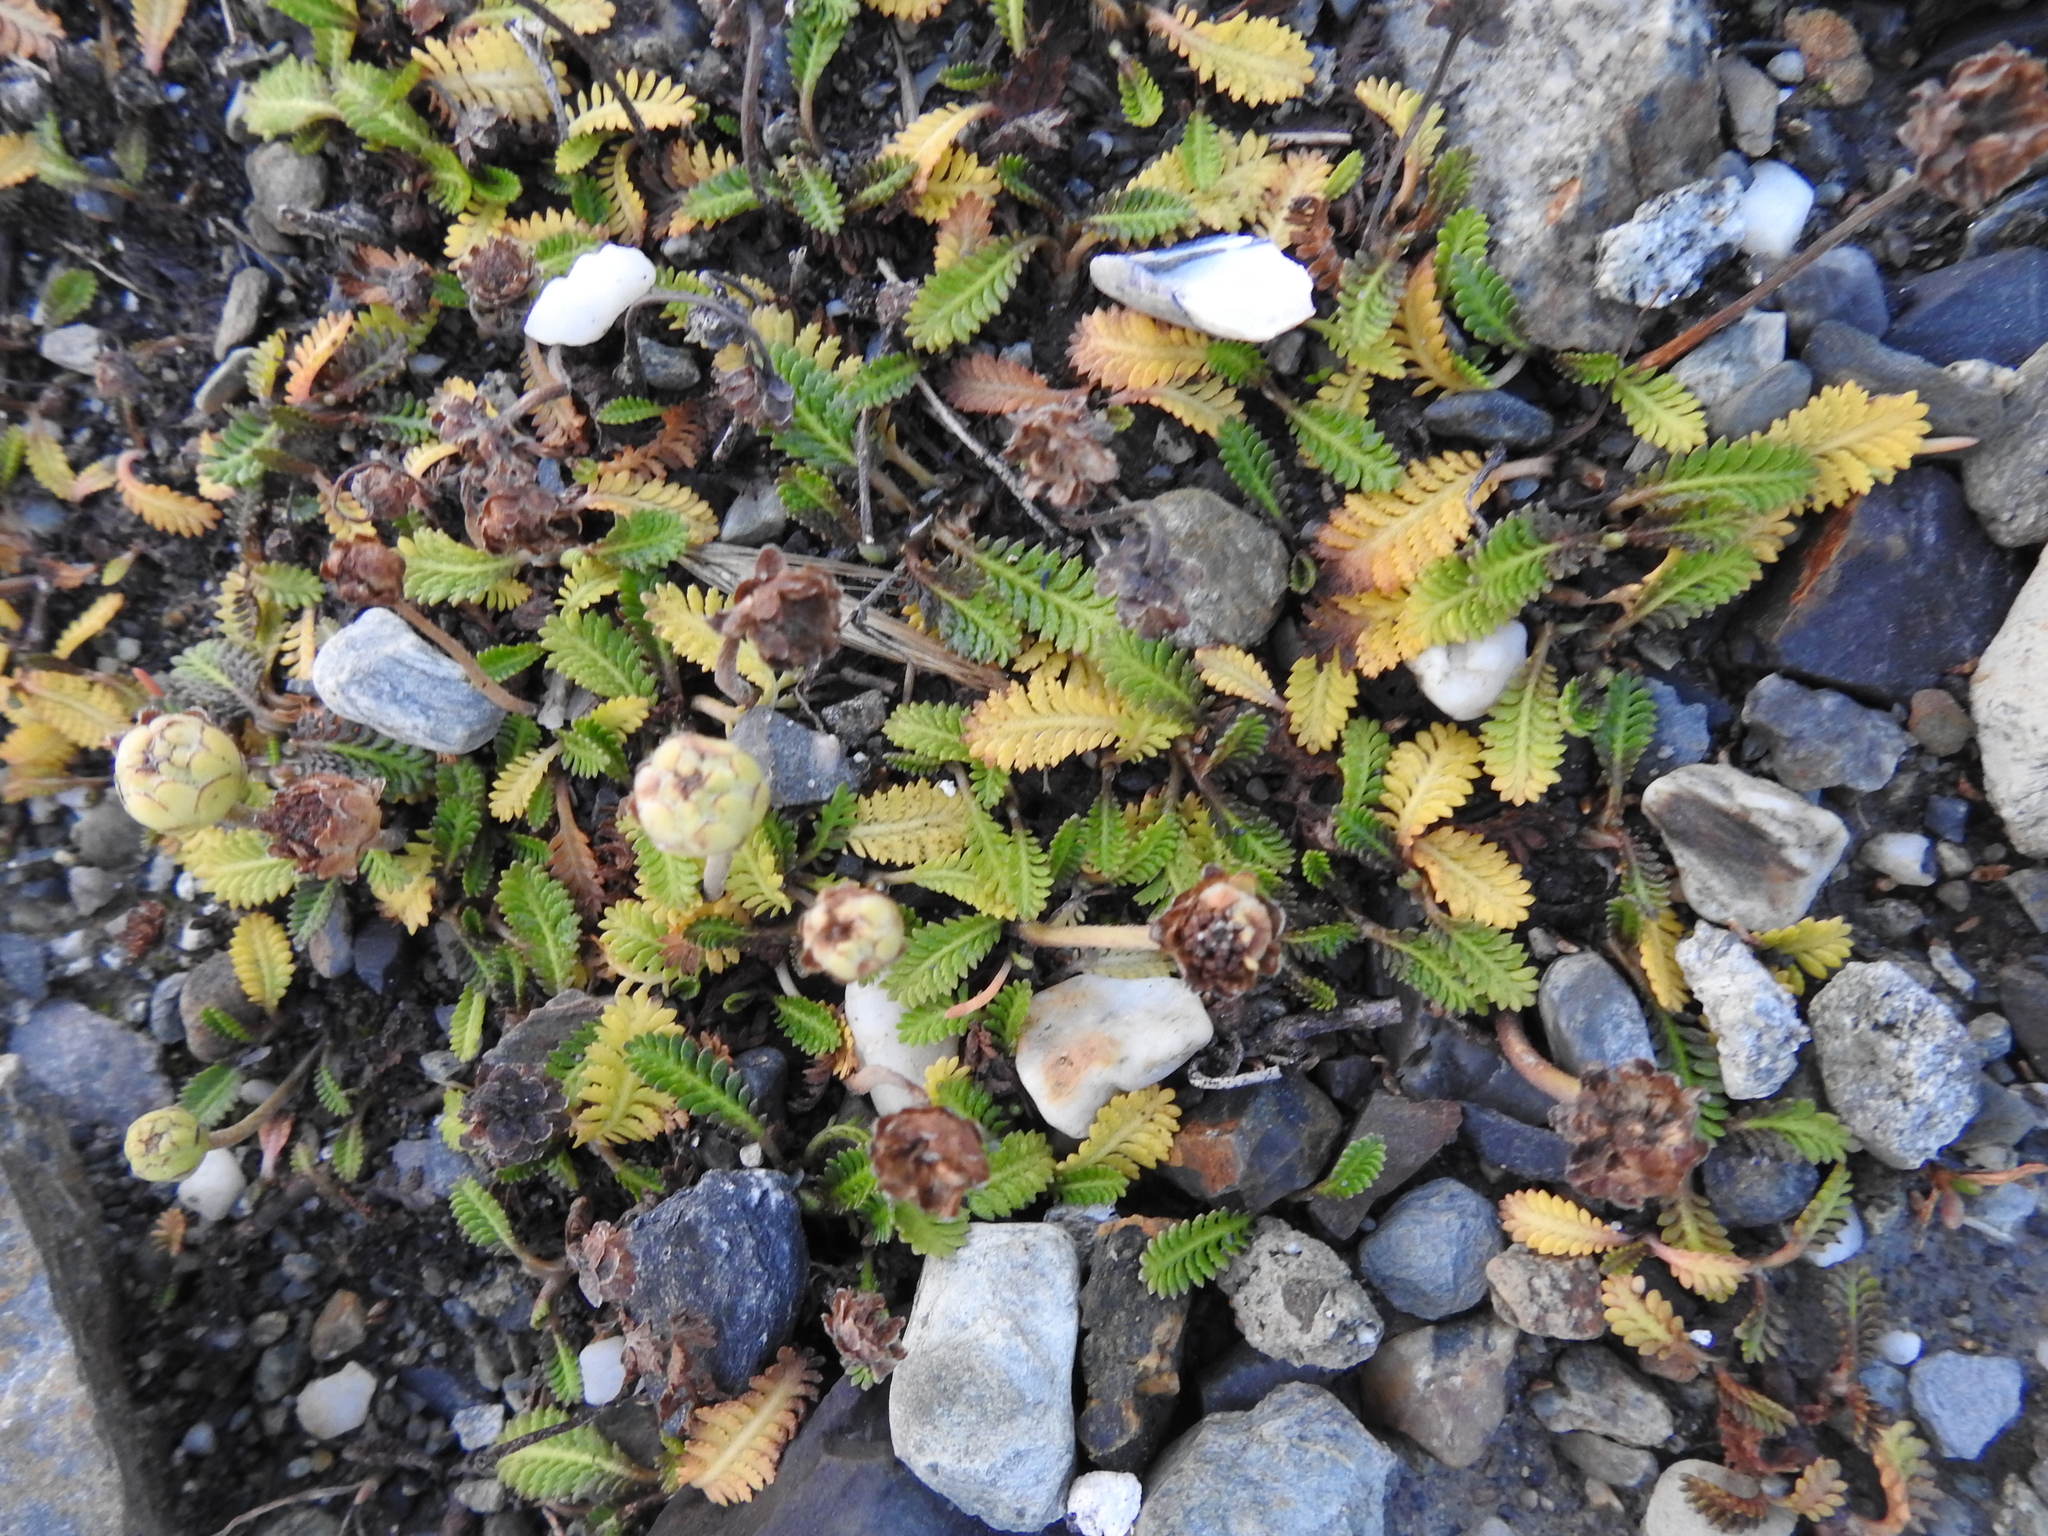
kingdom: Plantae
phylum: Tracheophyta
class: Magnoliopsida
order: Asterales
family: Asteraceae
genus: Leptinella
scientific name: Leptinella scariosa
